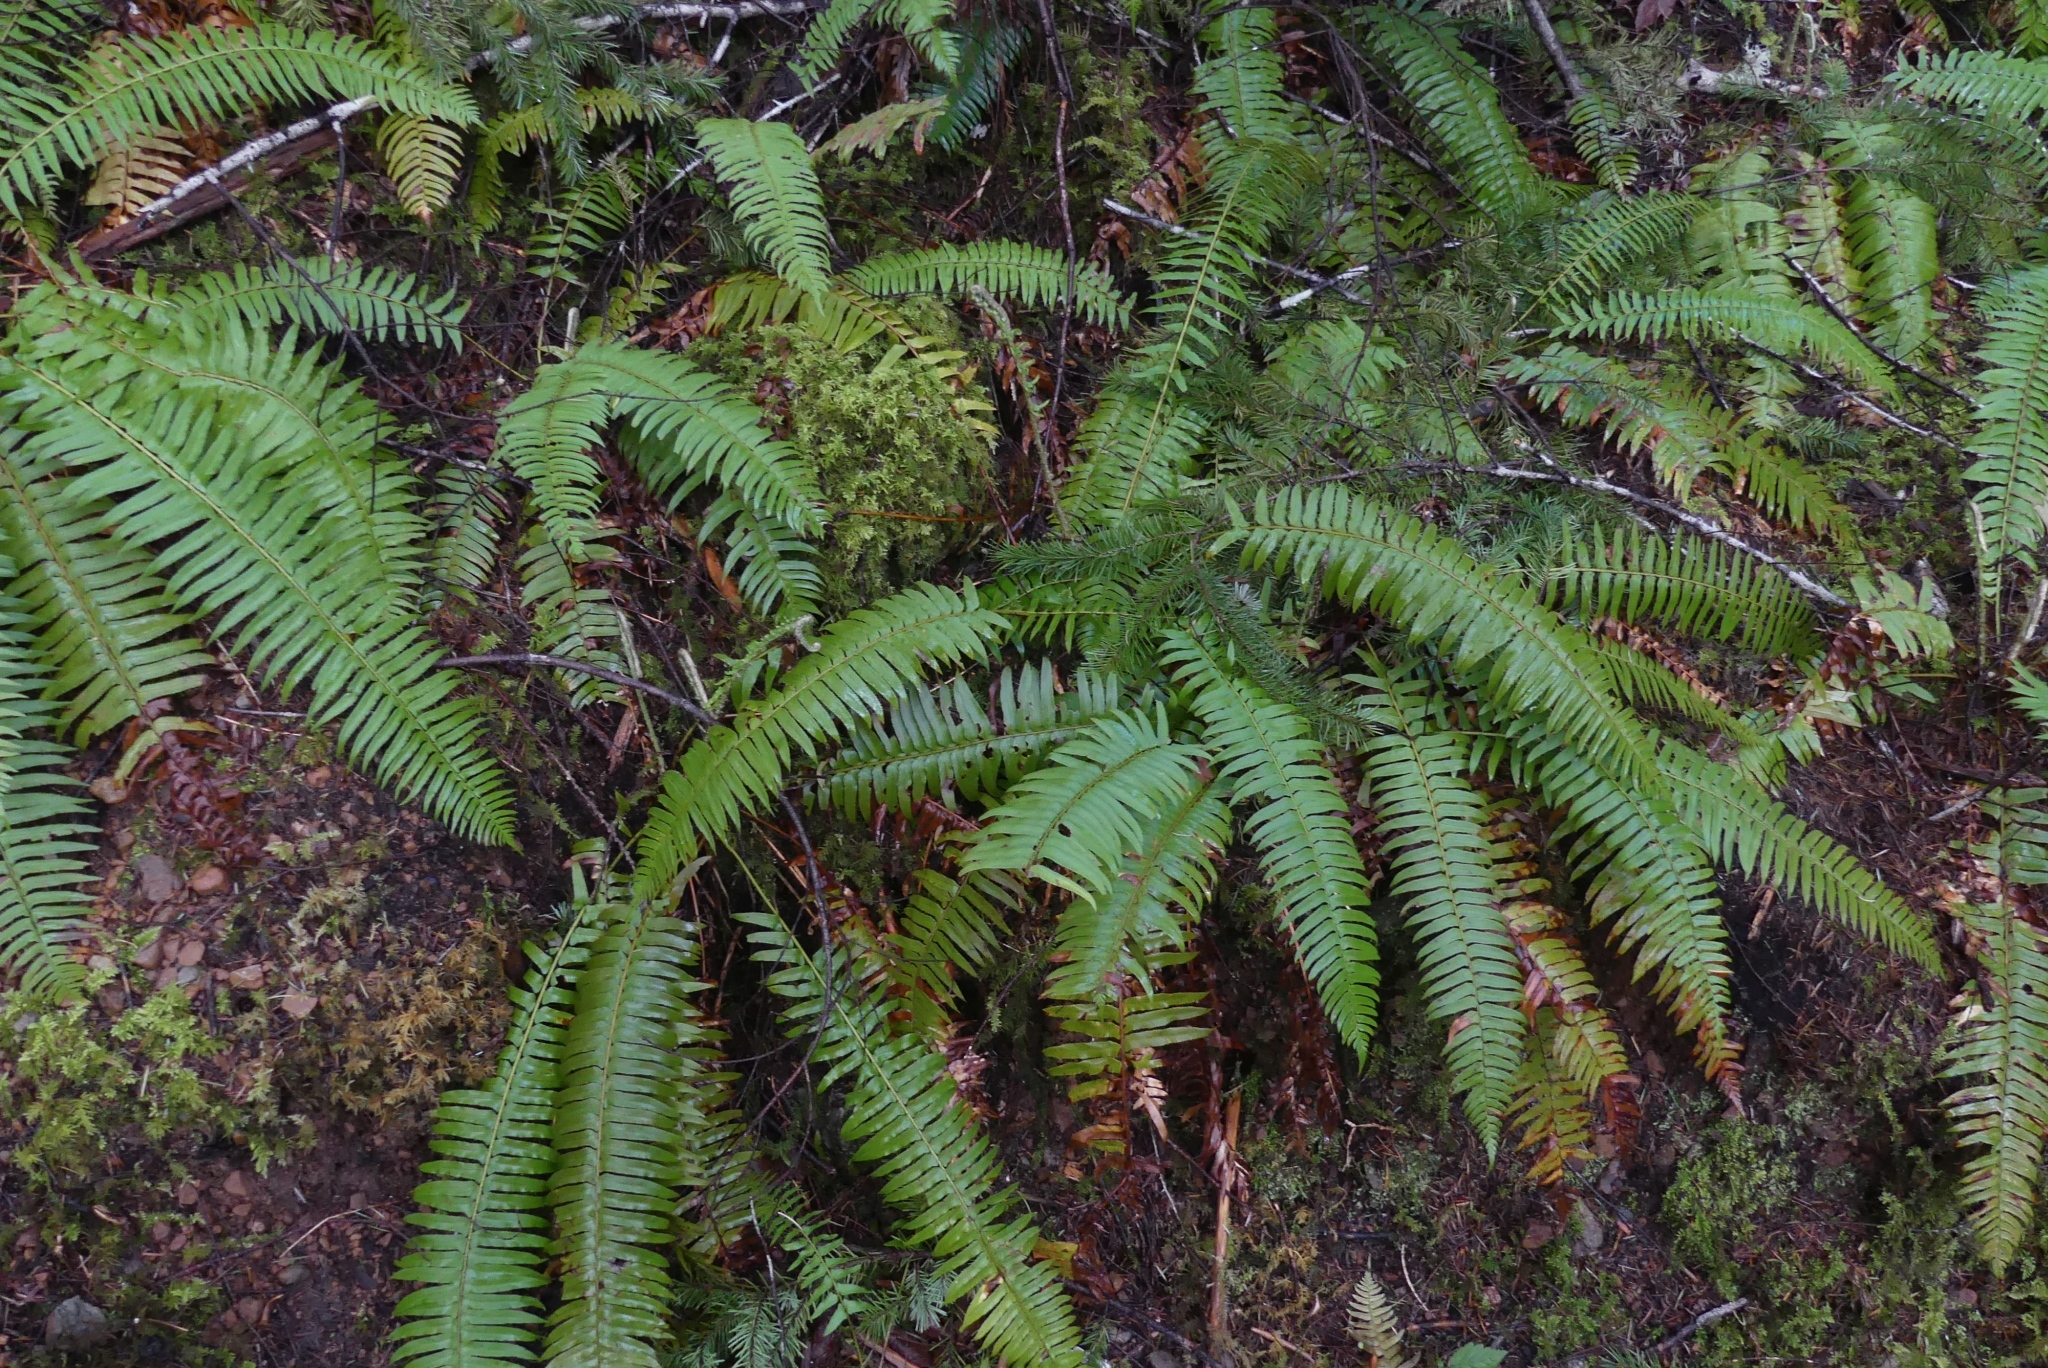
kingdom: Plantae
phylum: Tracheophyta
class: Polypodiopsida
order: Polypodiales
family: Dryopteridaceae
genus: Polystichum
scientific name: Polystichum munitum
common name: Western sword-fern
